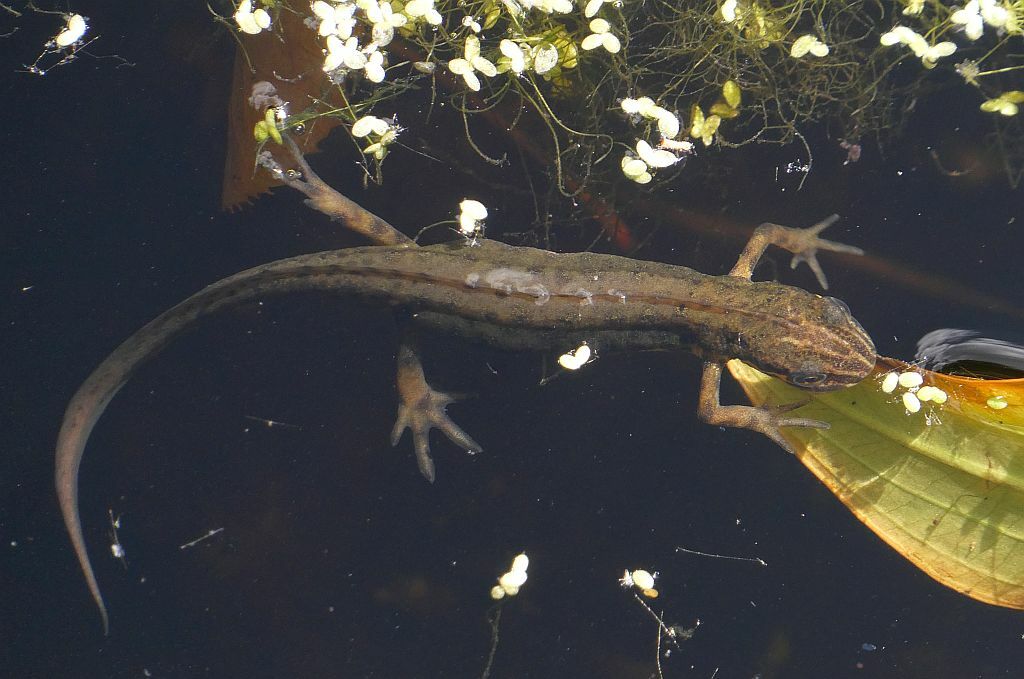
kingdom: Animalia
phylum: Chordata
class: Amphibia
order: Caudata
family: Salamandridae
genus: Lissotriton
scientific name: Lissotriton vulgaris
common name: Smooth newt
